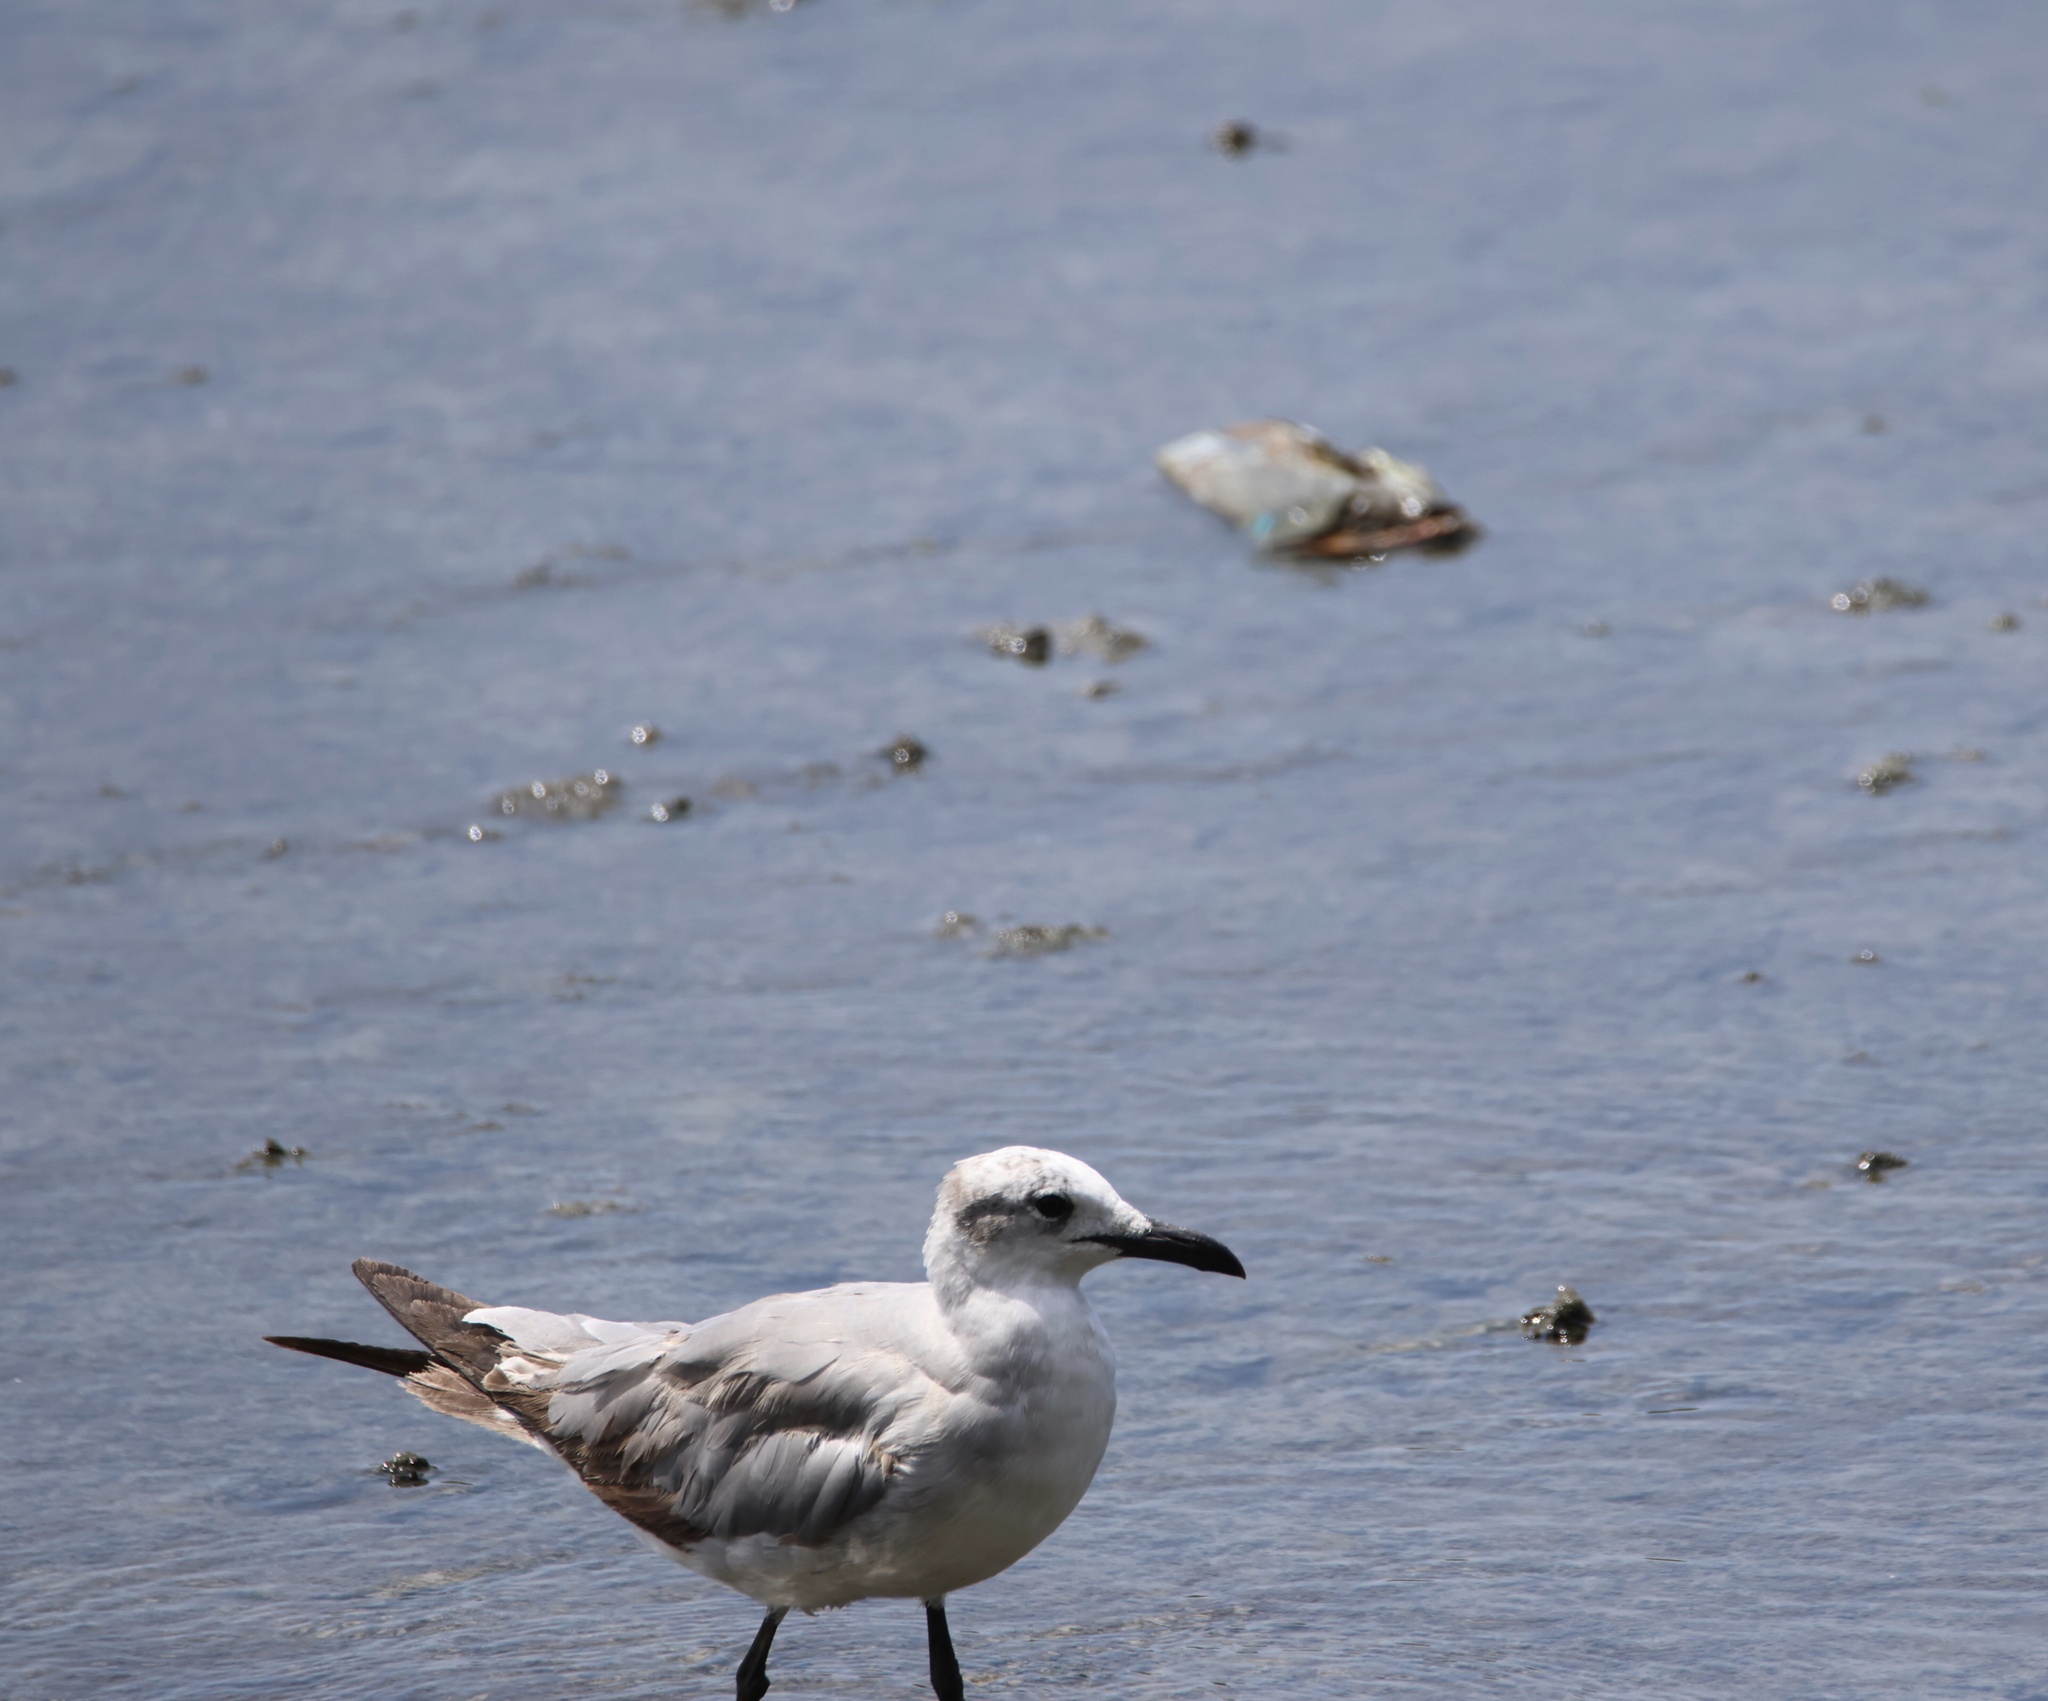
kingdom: Animalia
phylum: Chordata
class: Aves
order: Charadriiformes
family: Laridae
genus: Leucophaeus
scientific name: Leucophaeus atricilla
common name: Laughing gull
